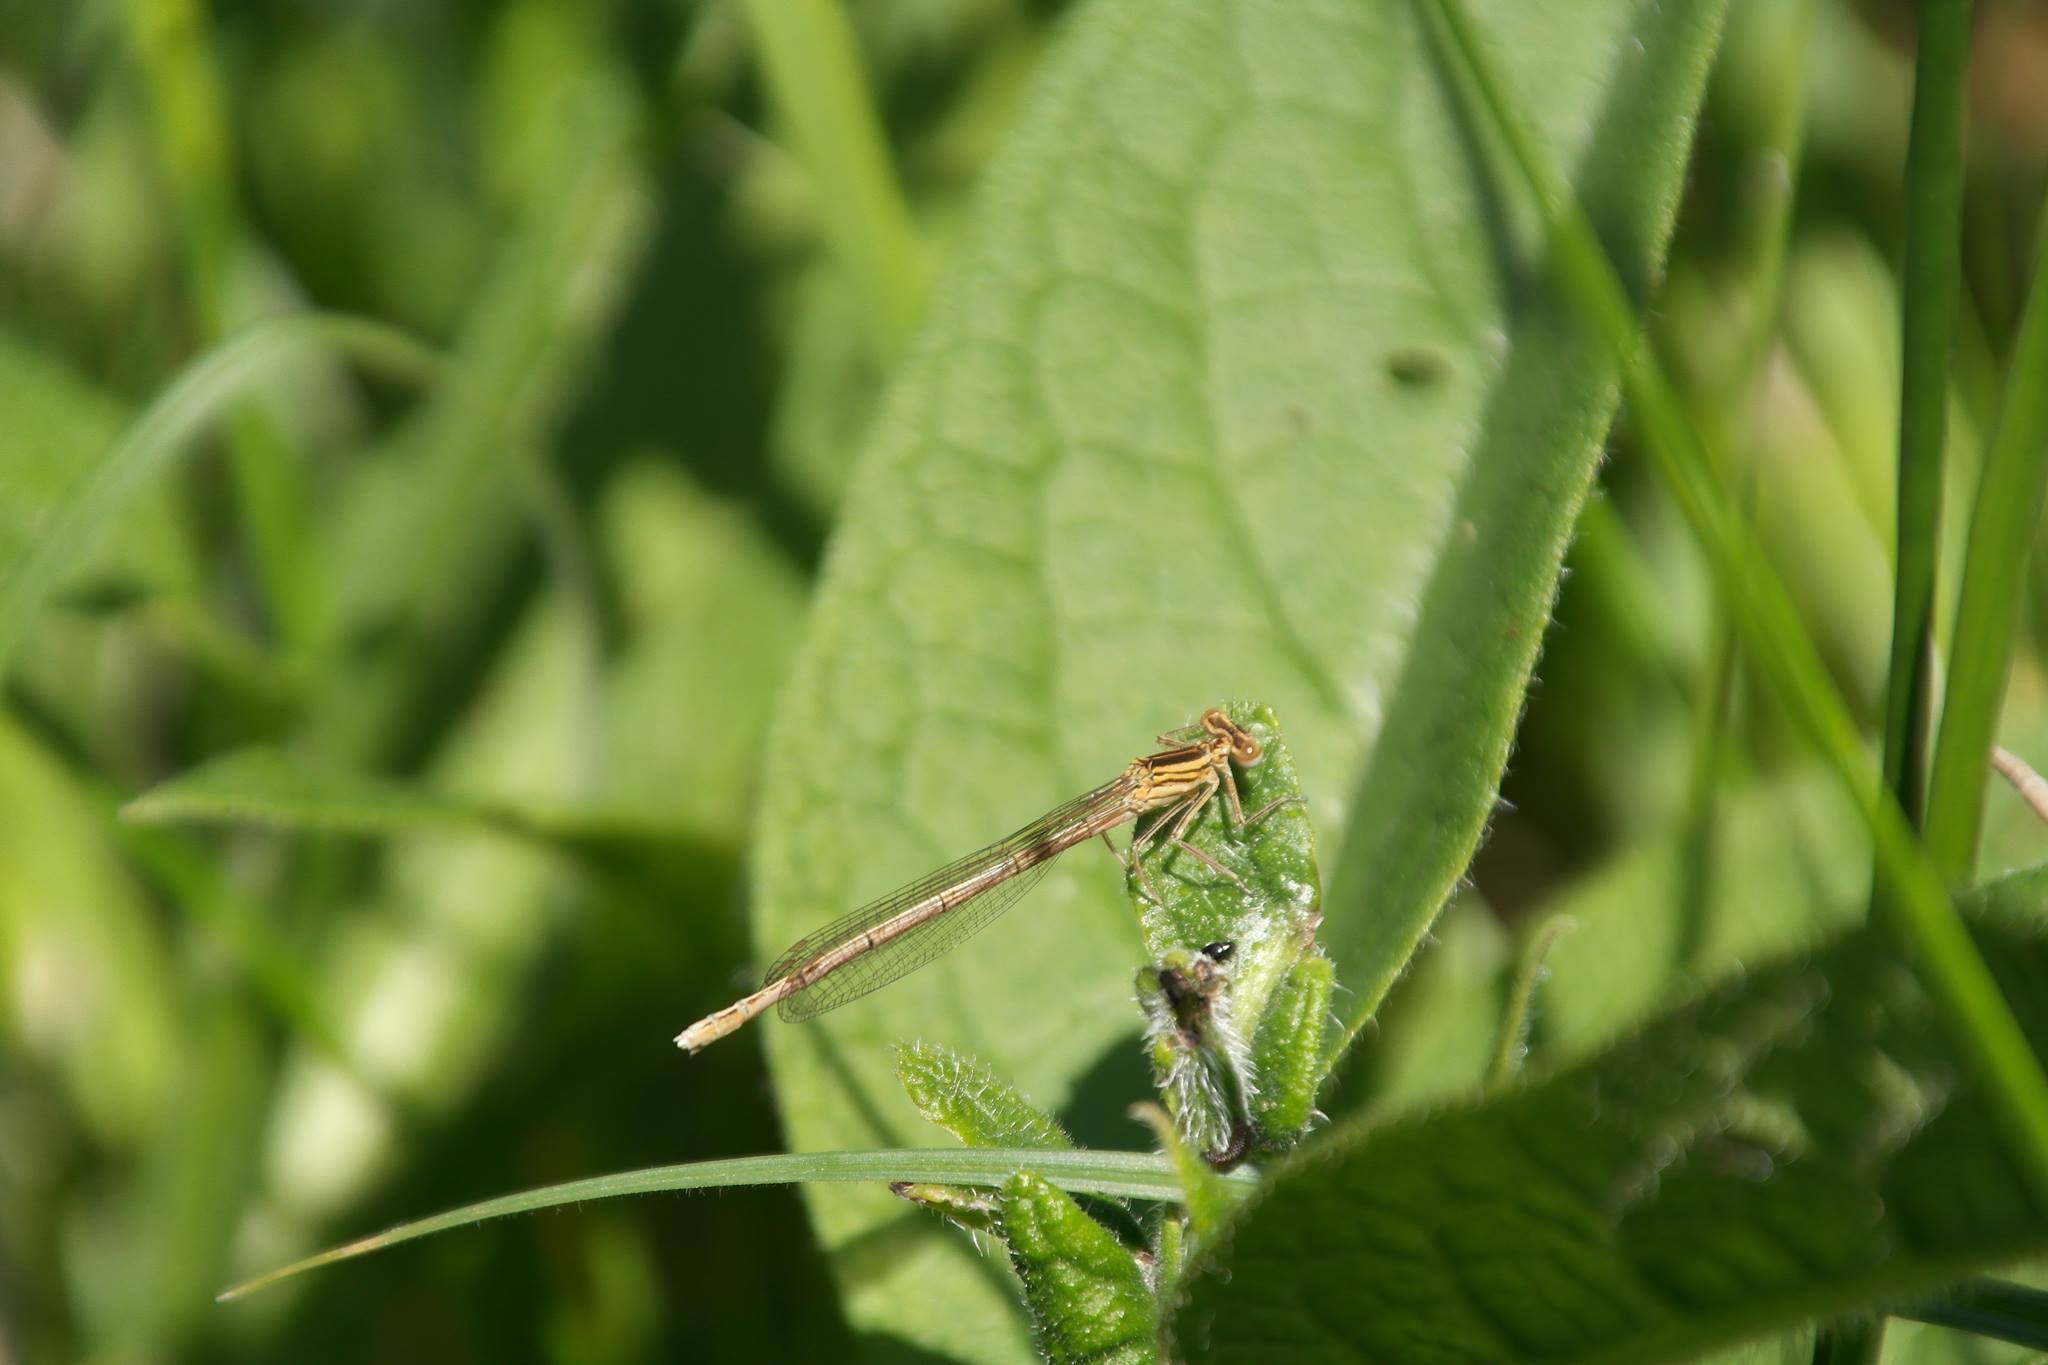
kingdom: Animalia
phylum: Arthropoda
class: Insecta
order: Odonata
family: Platycnemididae
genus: Platycnemis
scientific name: Platycnemis pennipes
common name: White-legged damselfly
